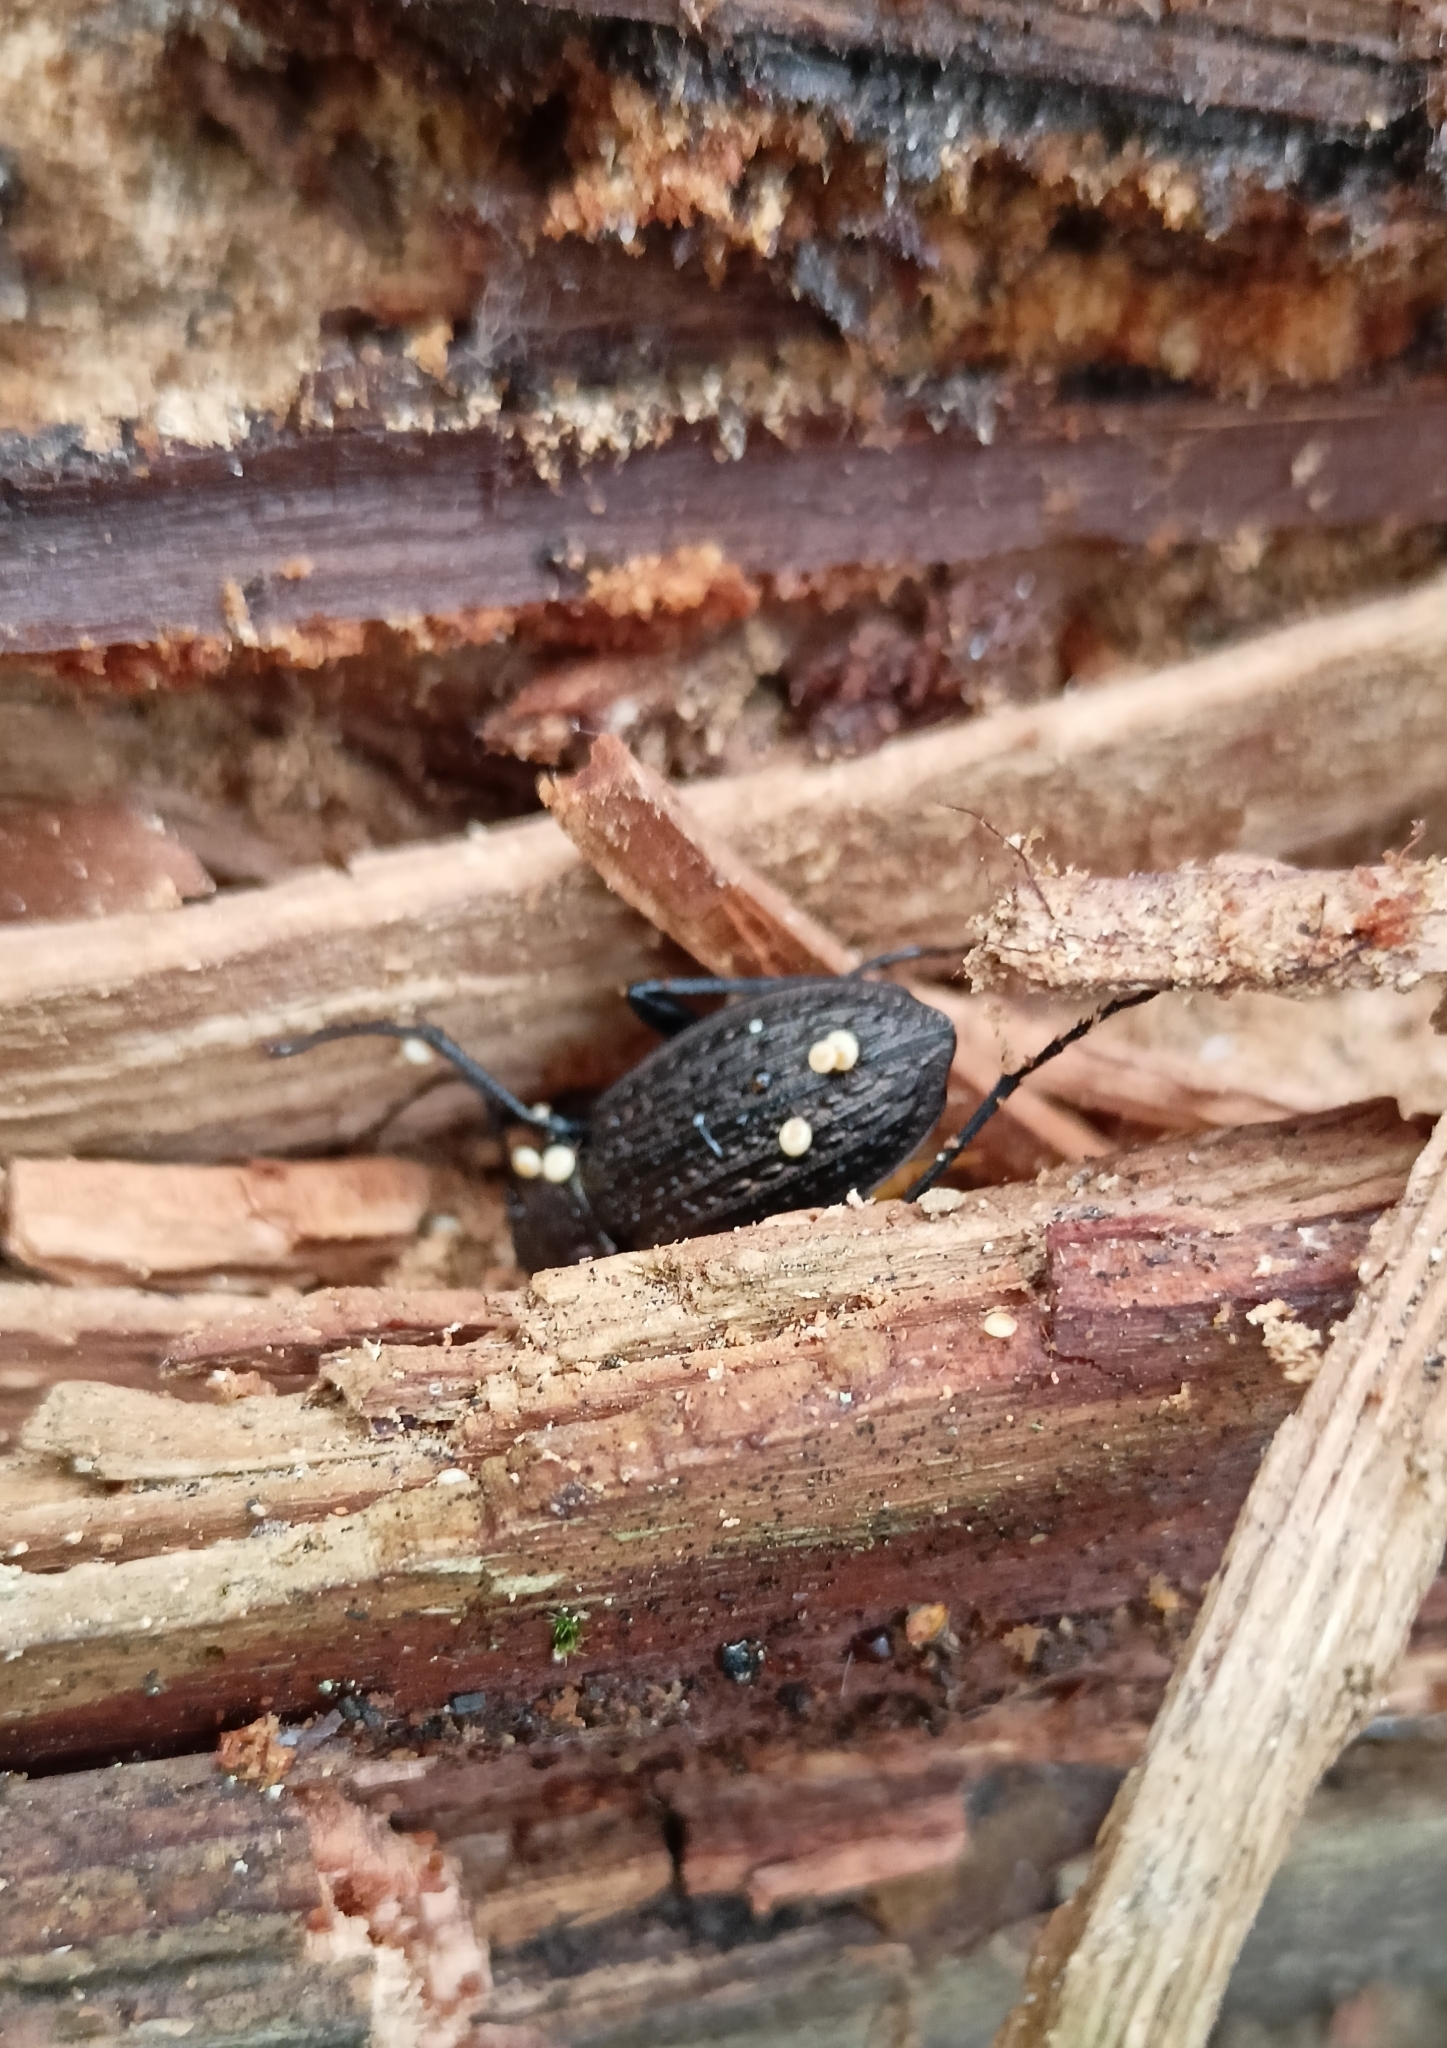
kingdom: Animalia
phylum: Arthropoda
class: Insecta
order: Coleoptera
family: Carabidae
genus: Carabus
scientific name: Carabus granulatus
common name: Granulate ground beetle
